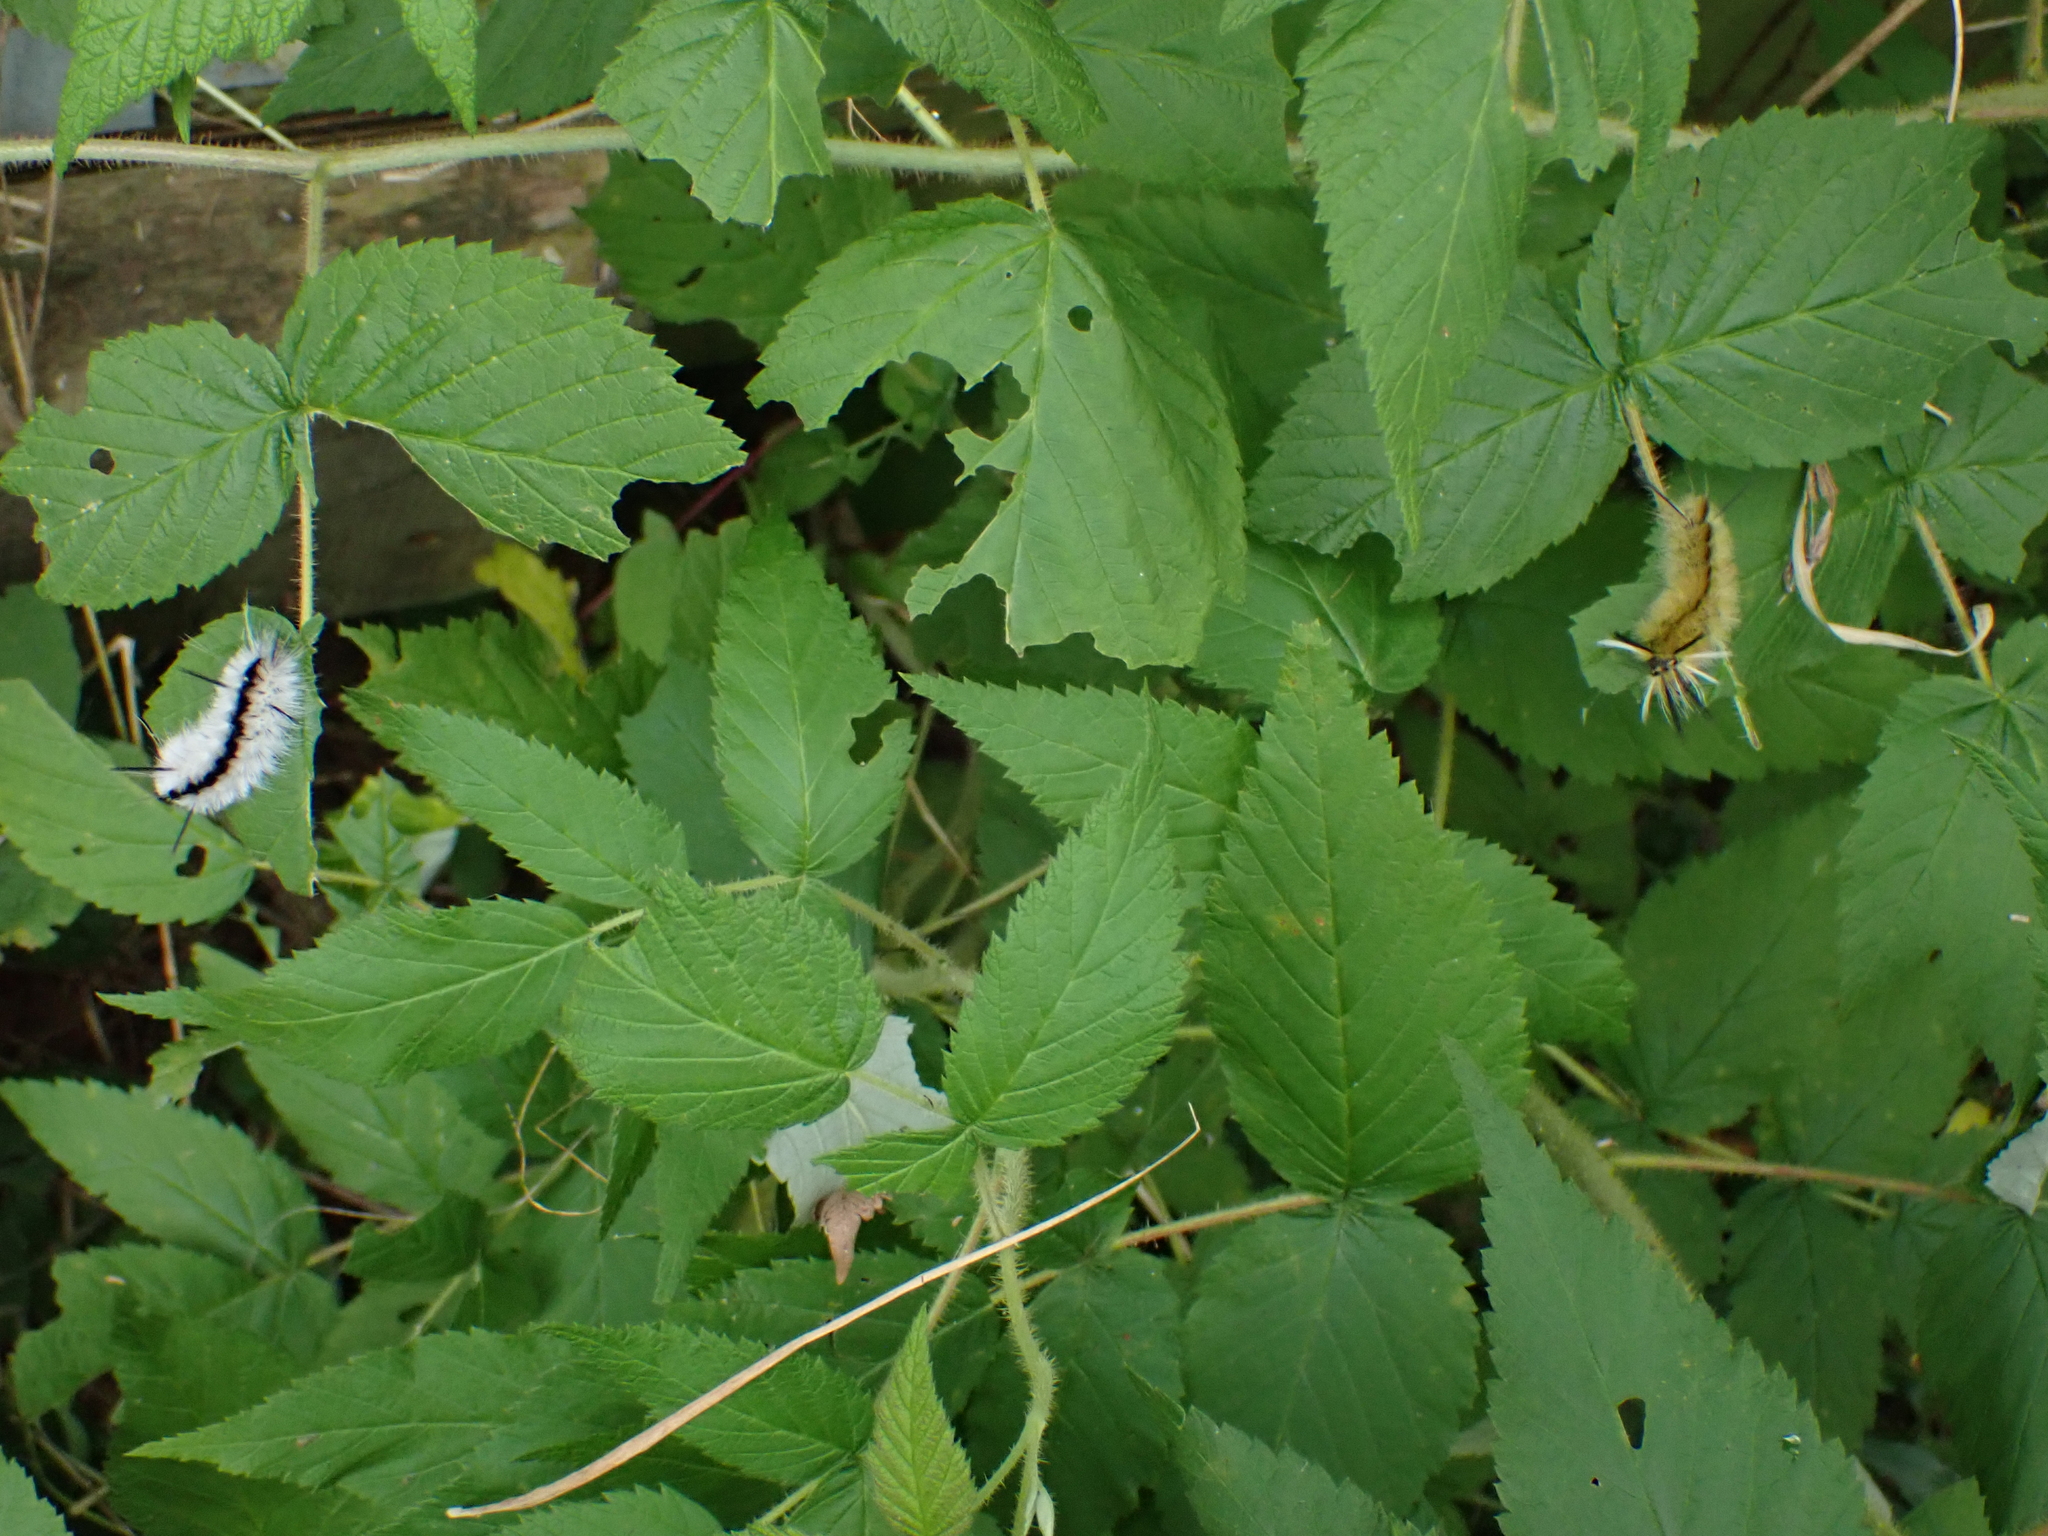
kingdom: Animalia
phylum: Arthropoda
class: Insecta
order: Lepidoptera
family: Erebidae
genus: Halysidota
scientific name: Halysidota tessellaris
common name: Banded tussock moth
